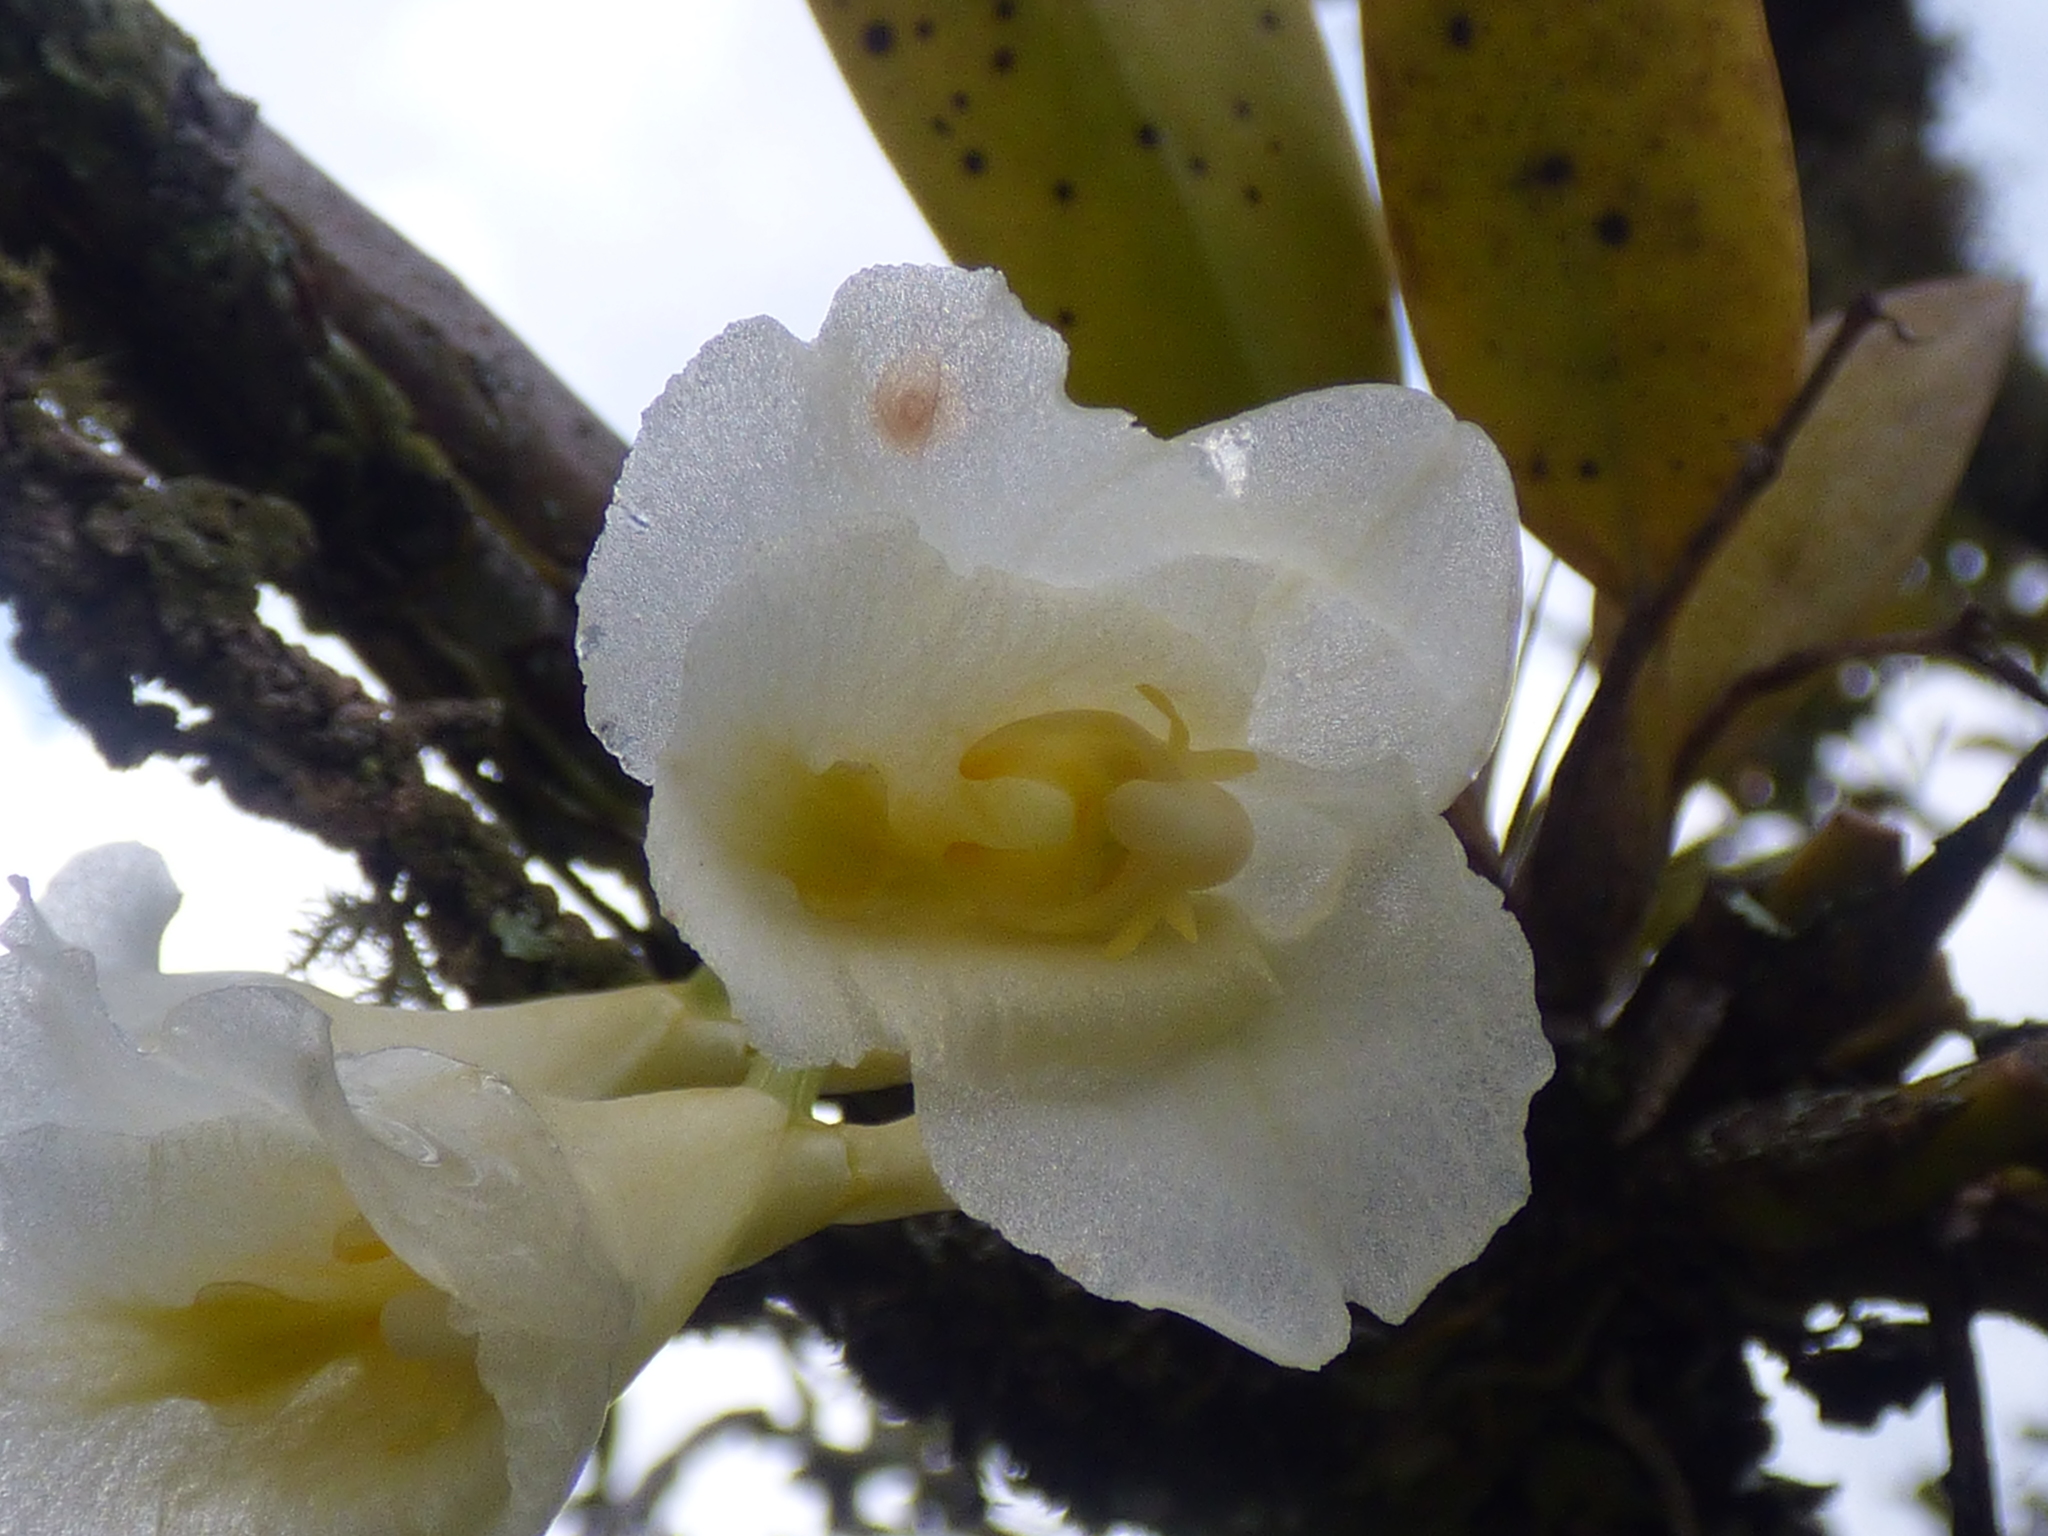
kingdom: Plantae
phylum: Tracheophyta
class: Liliopsida
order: Asparagales
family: Orchidaceae
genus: Rodriguezia
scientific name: Rodriguezia granadensis
